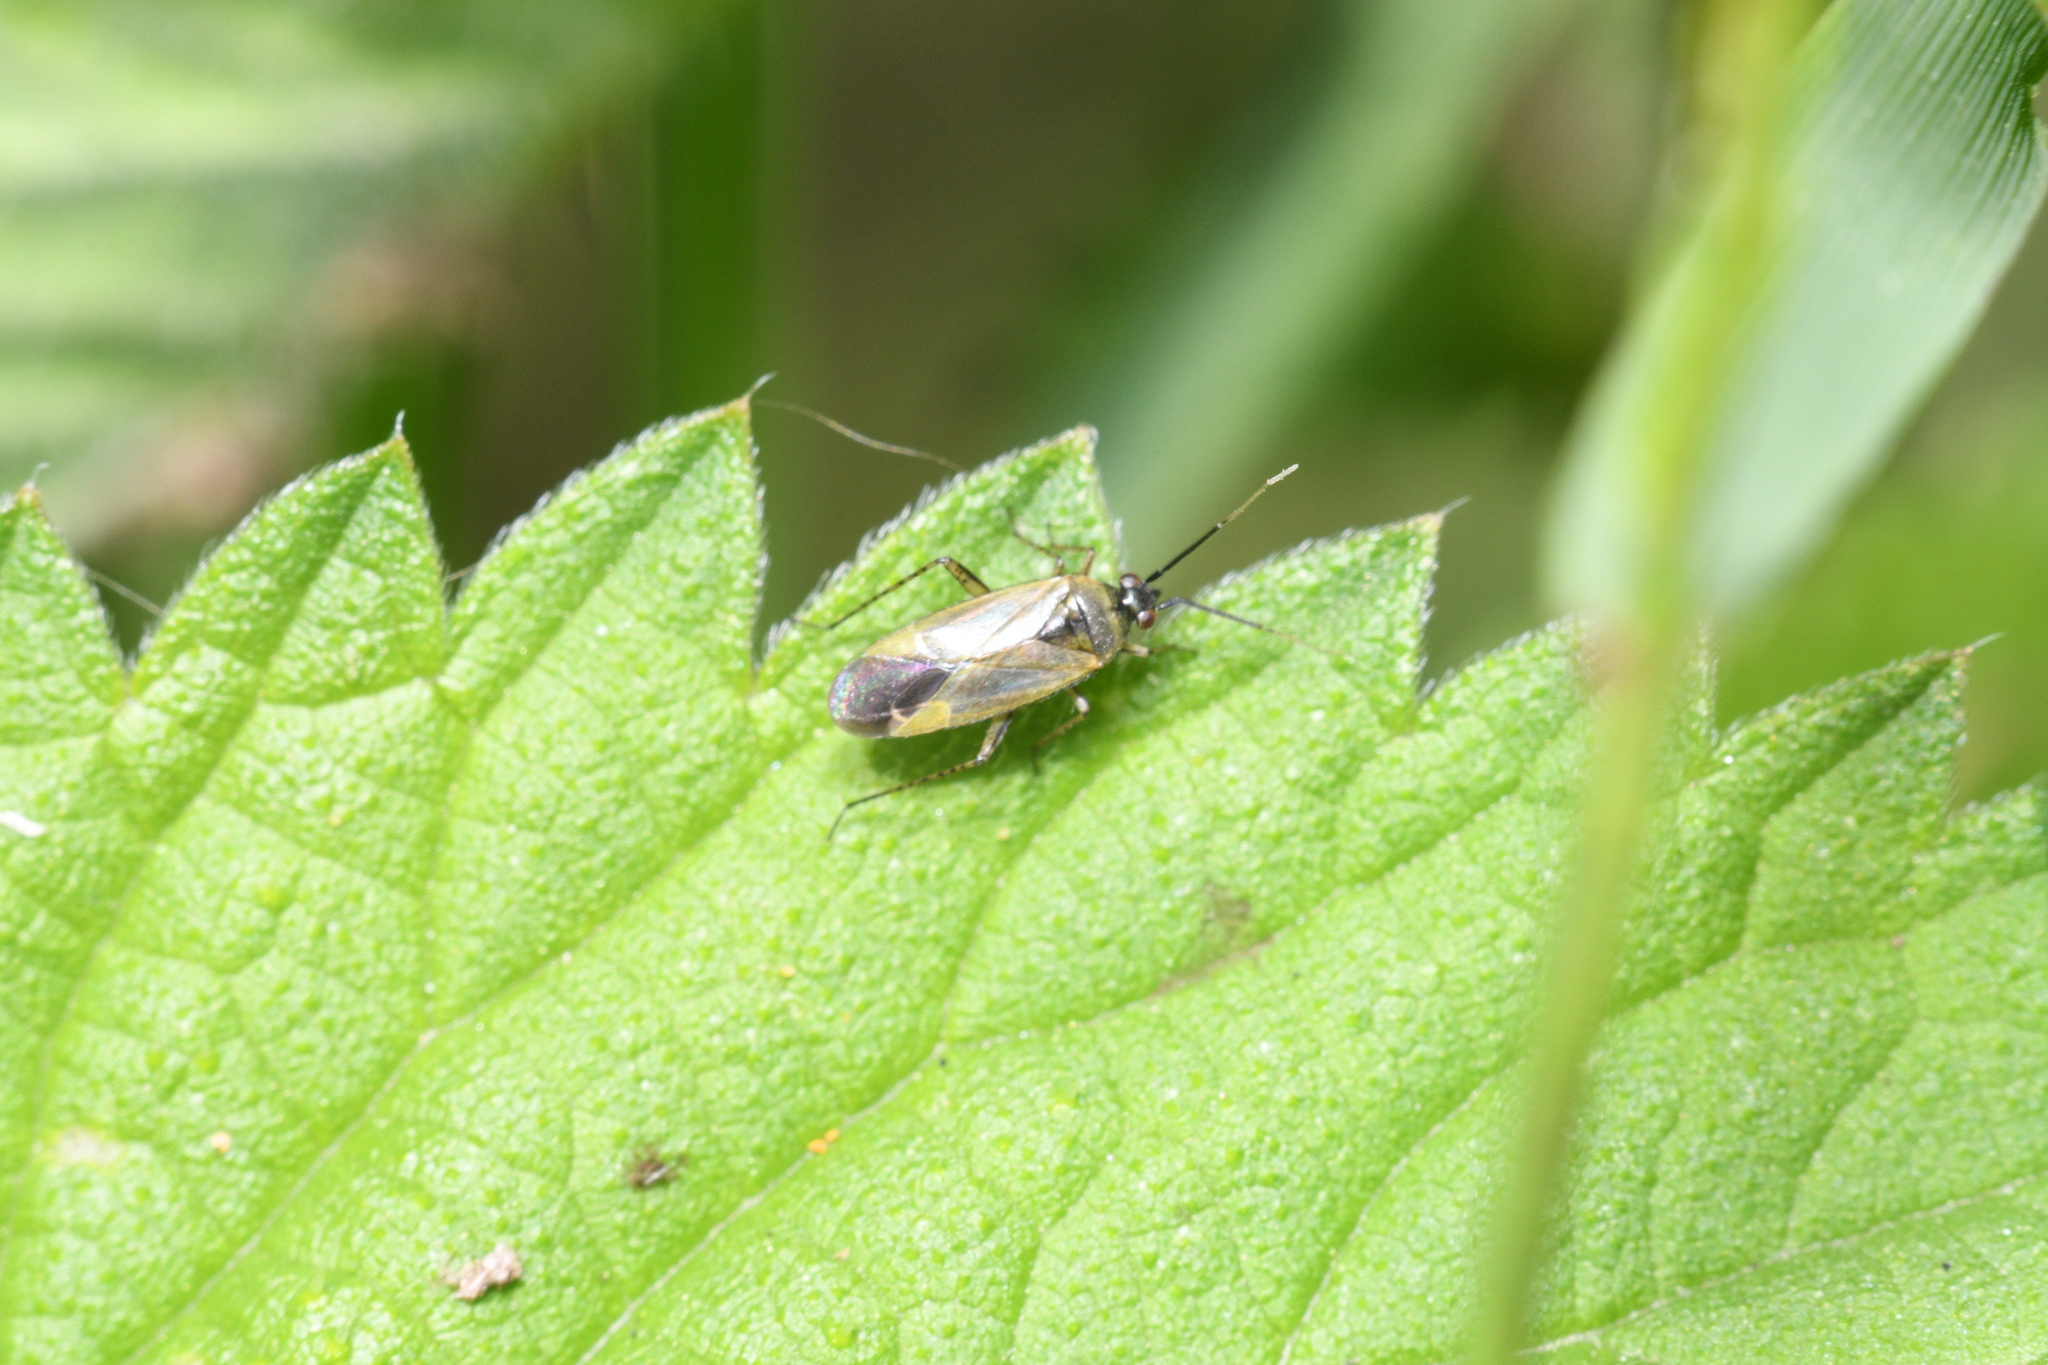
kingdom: Animalia
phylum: Arthropoda
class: Insecta
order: Hemiptera
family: Miridae
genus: Plagiognathus
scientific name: Plagiognathus arbustorum
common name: Plant bug
